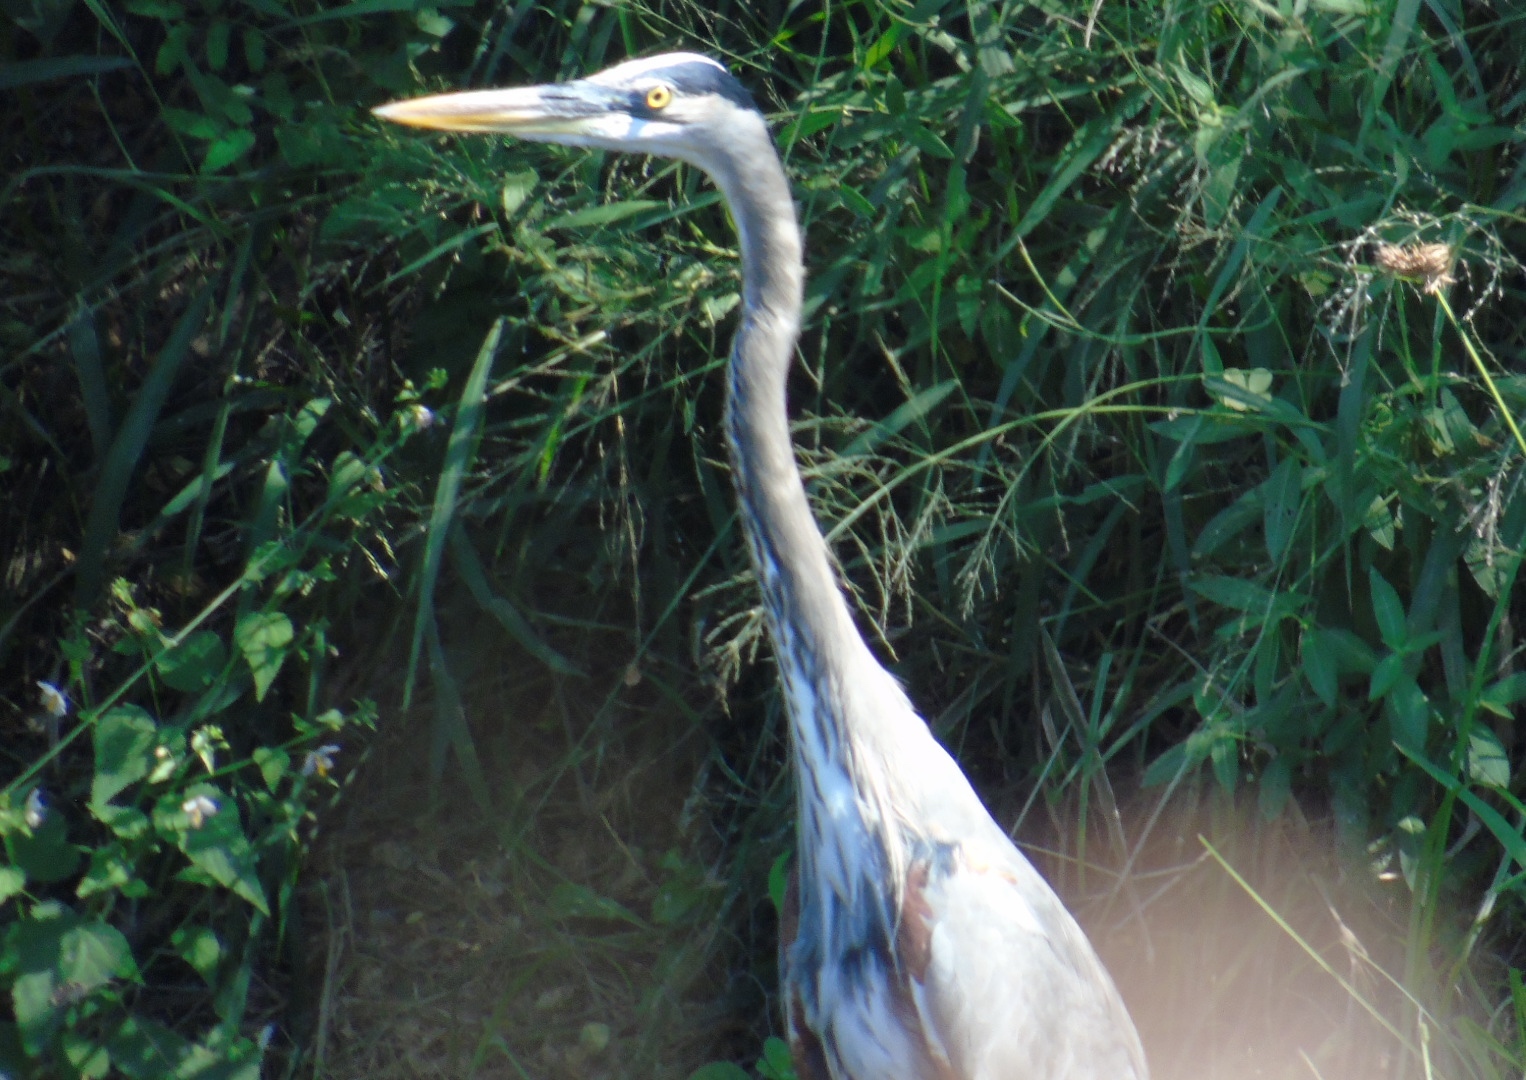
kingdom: Animalia
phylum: Chordata
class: Aves
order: Pelecaniformes
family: Ardeidae
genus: Ardea
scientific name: Ardea herodias
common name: Great blue heron
